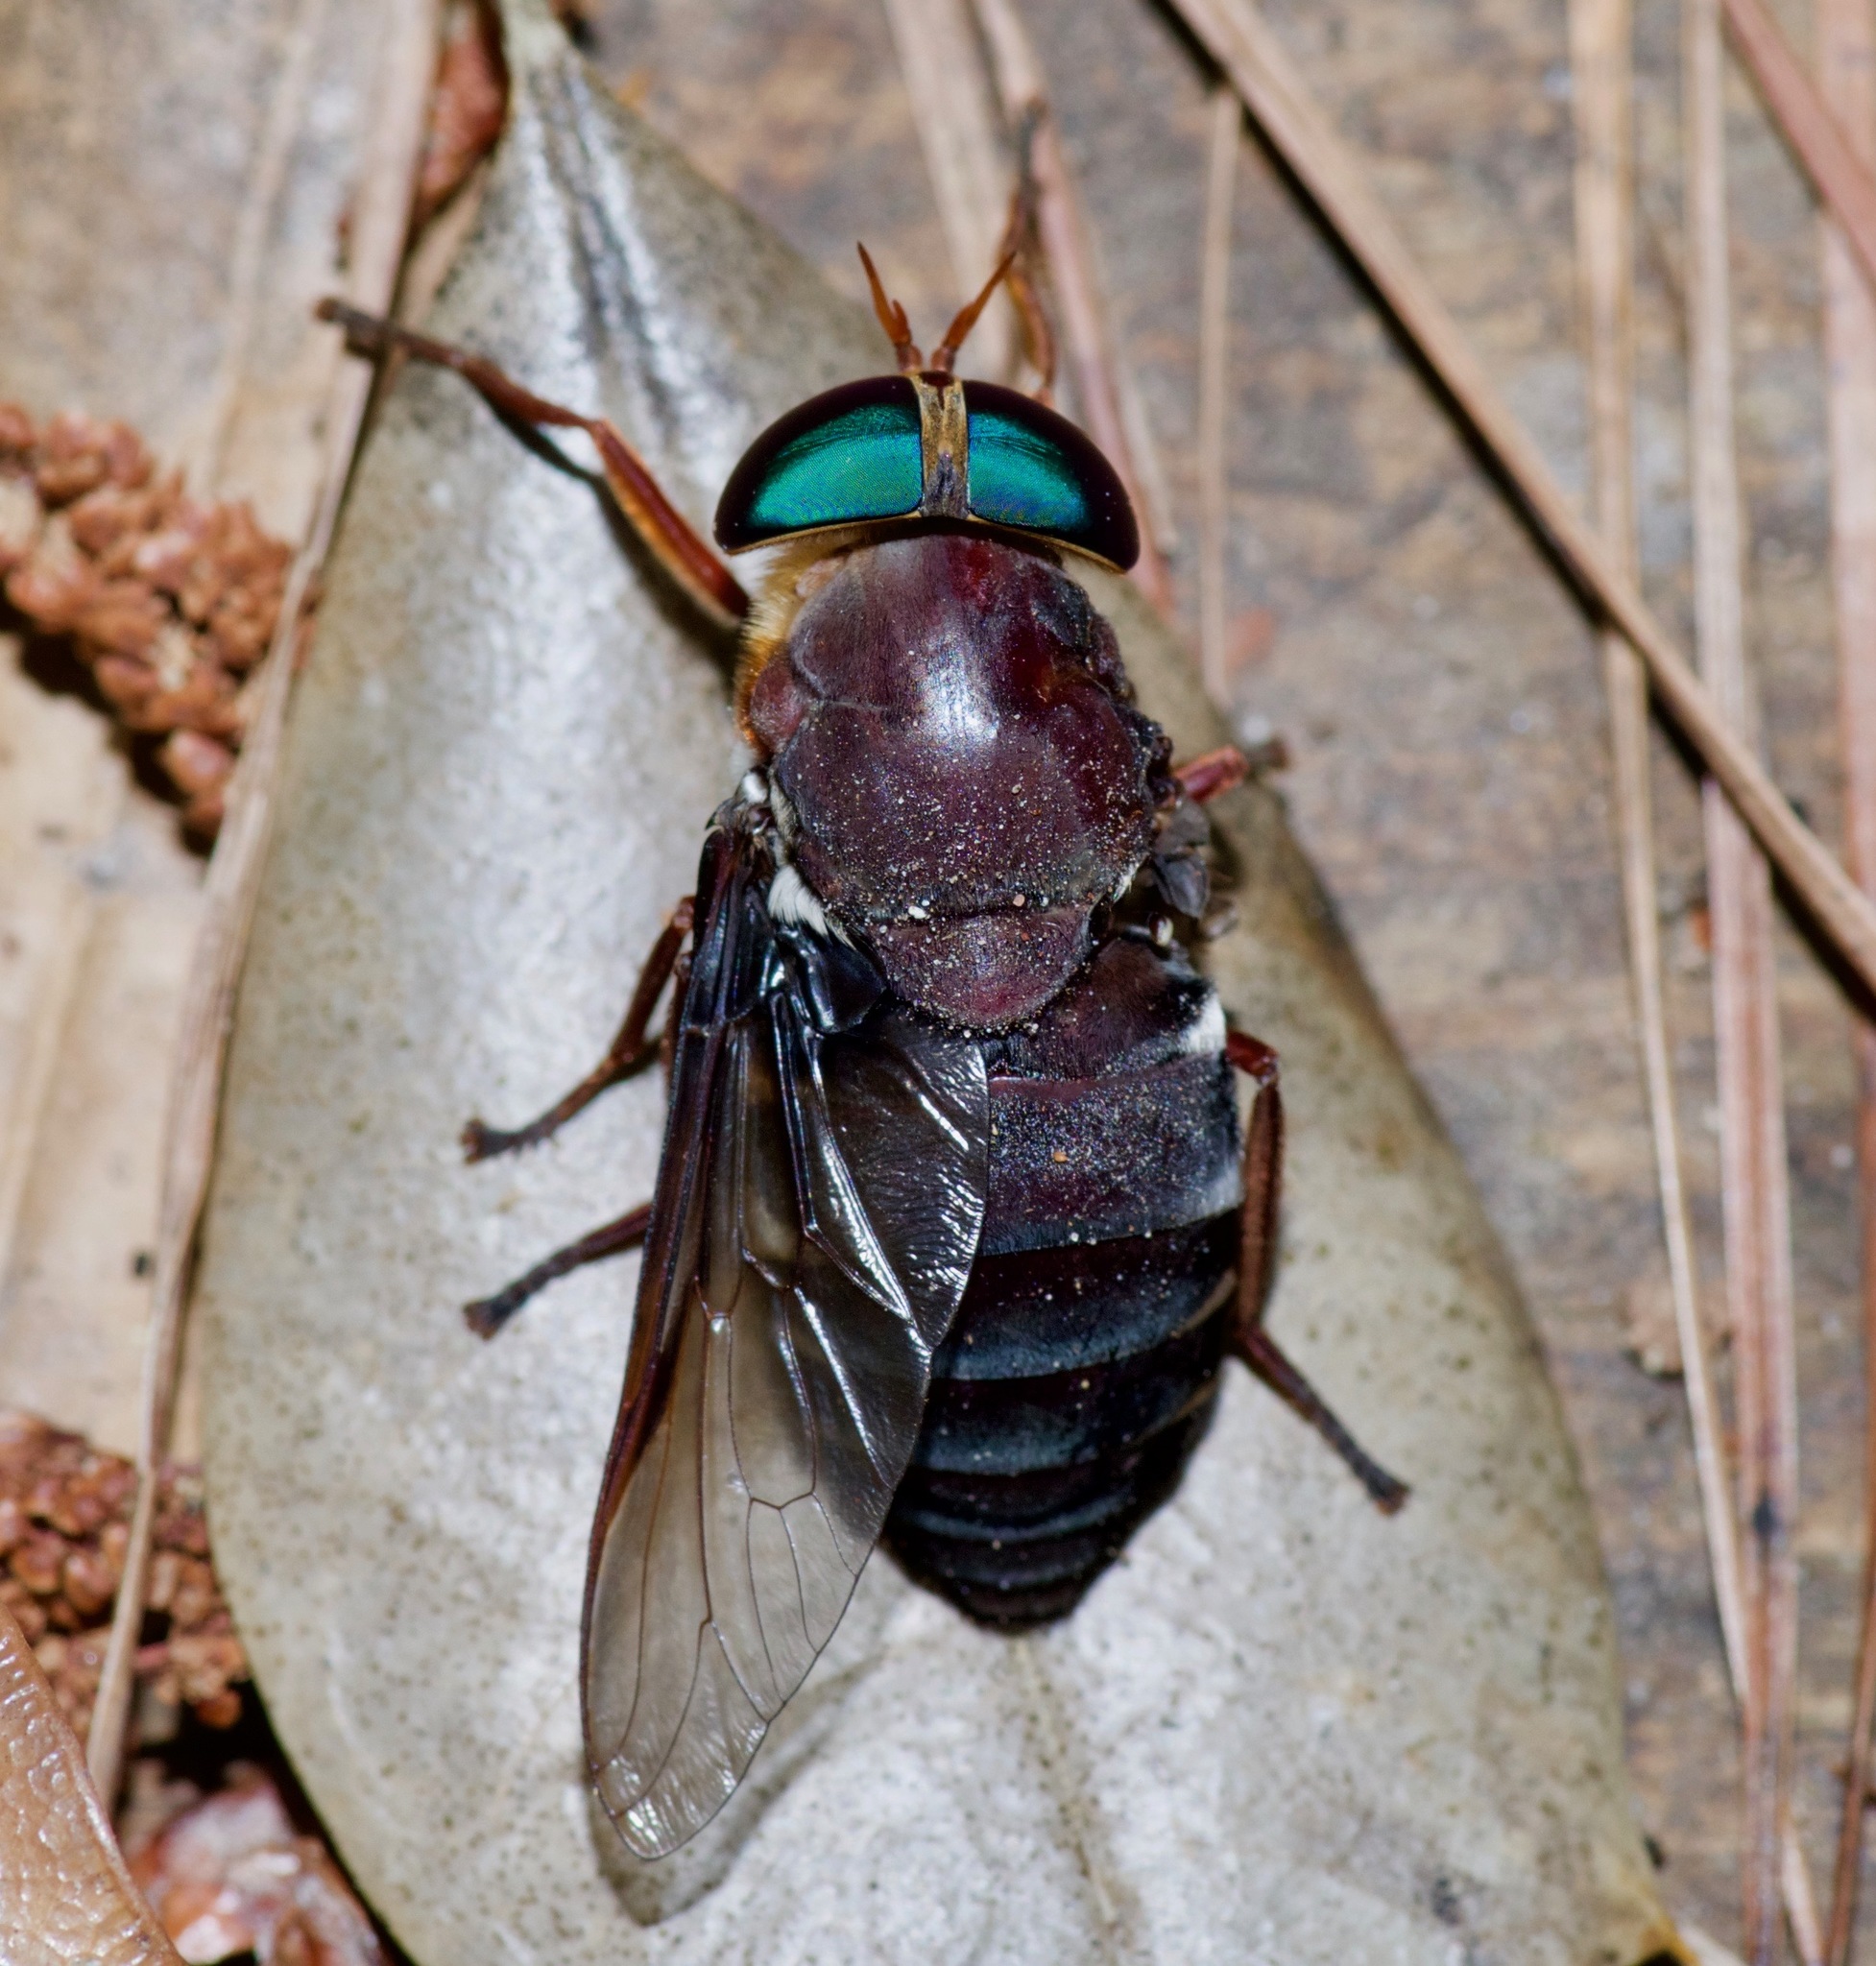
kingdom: Animalia
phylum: Arthropoda
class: Insecta
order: Diptera
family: Tabanidae
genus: Tabanus
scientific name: Tabanus americanus
